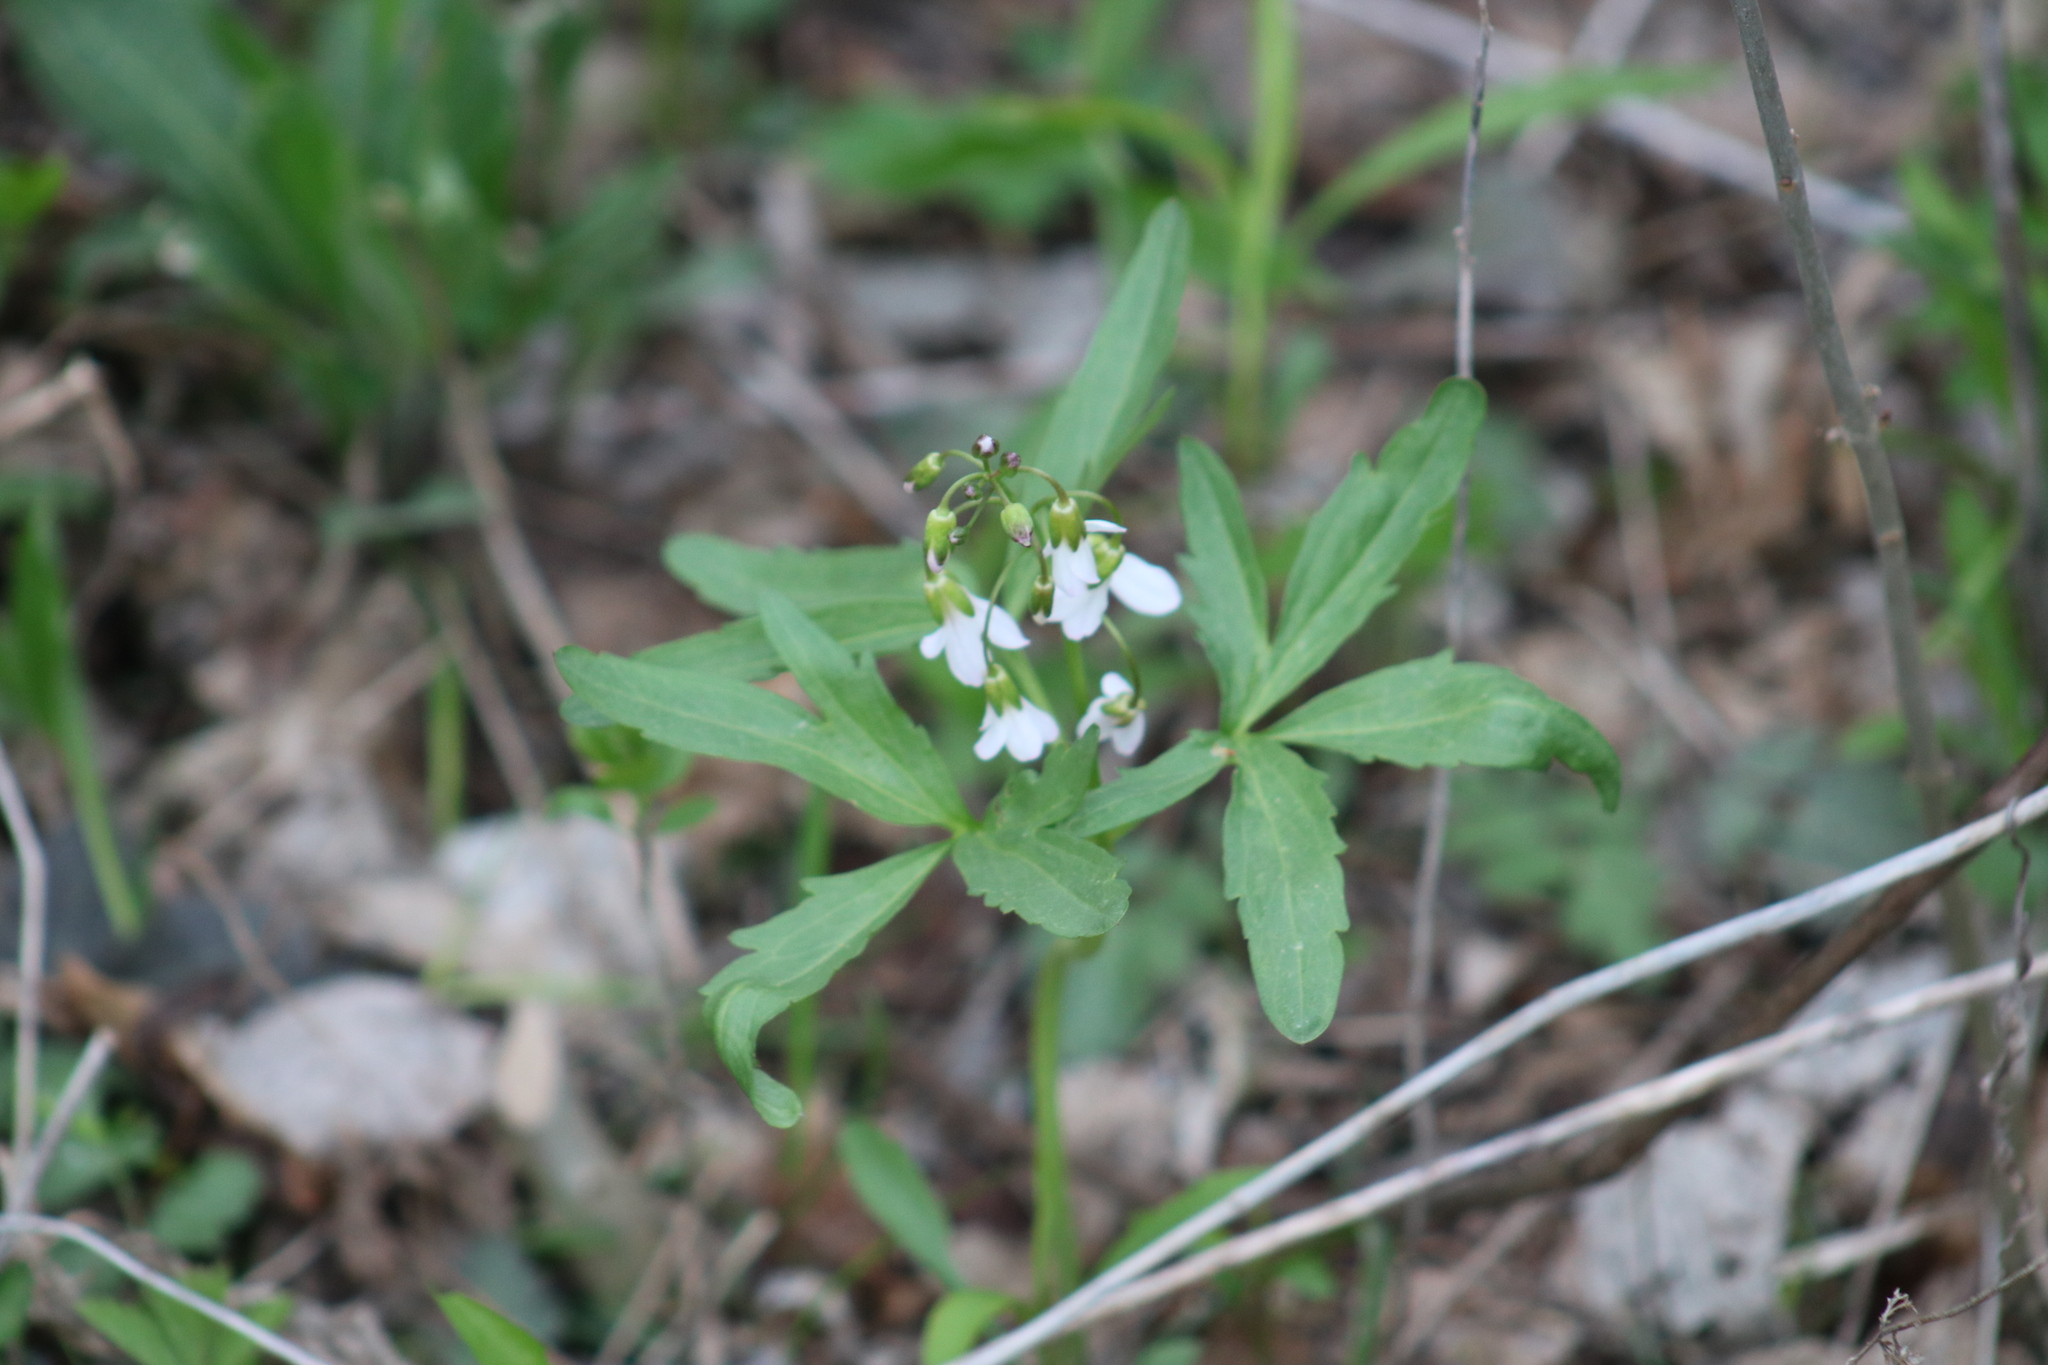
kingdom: Plantae
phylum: Tracheophyta
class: Magnoliopsida
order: Brassicales
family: Brassicaceae
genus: Cardamine
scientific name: Cardamine concatenata
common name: Cut-leaf toothcup
